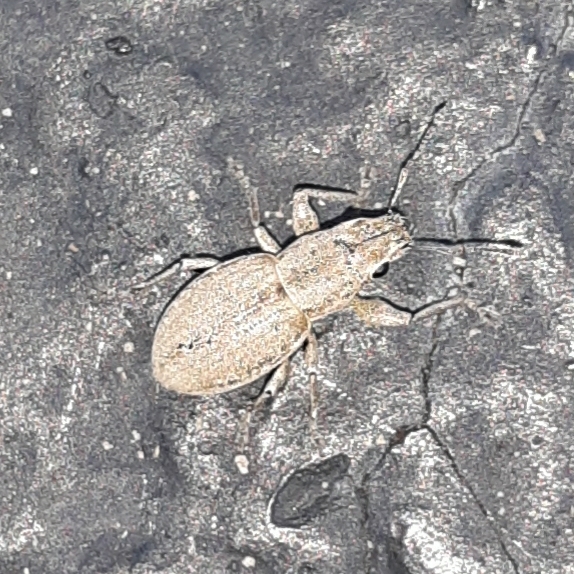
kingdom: Animalia
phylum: Arthropoda
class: Insecta
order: Coleoptera
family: Curculionidae
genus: Naupactus
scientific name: Naupactus cervinus
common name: Fuller rose beetle
